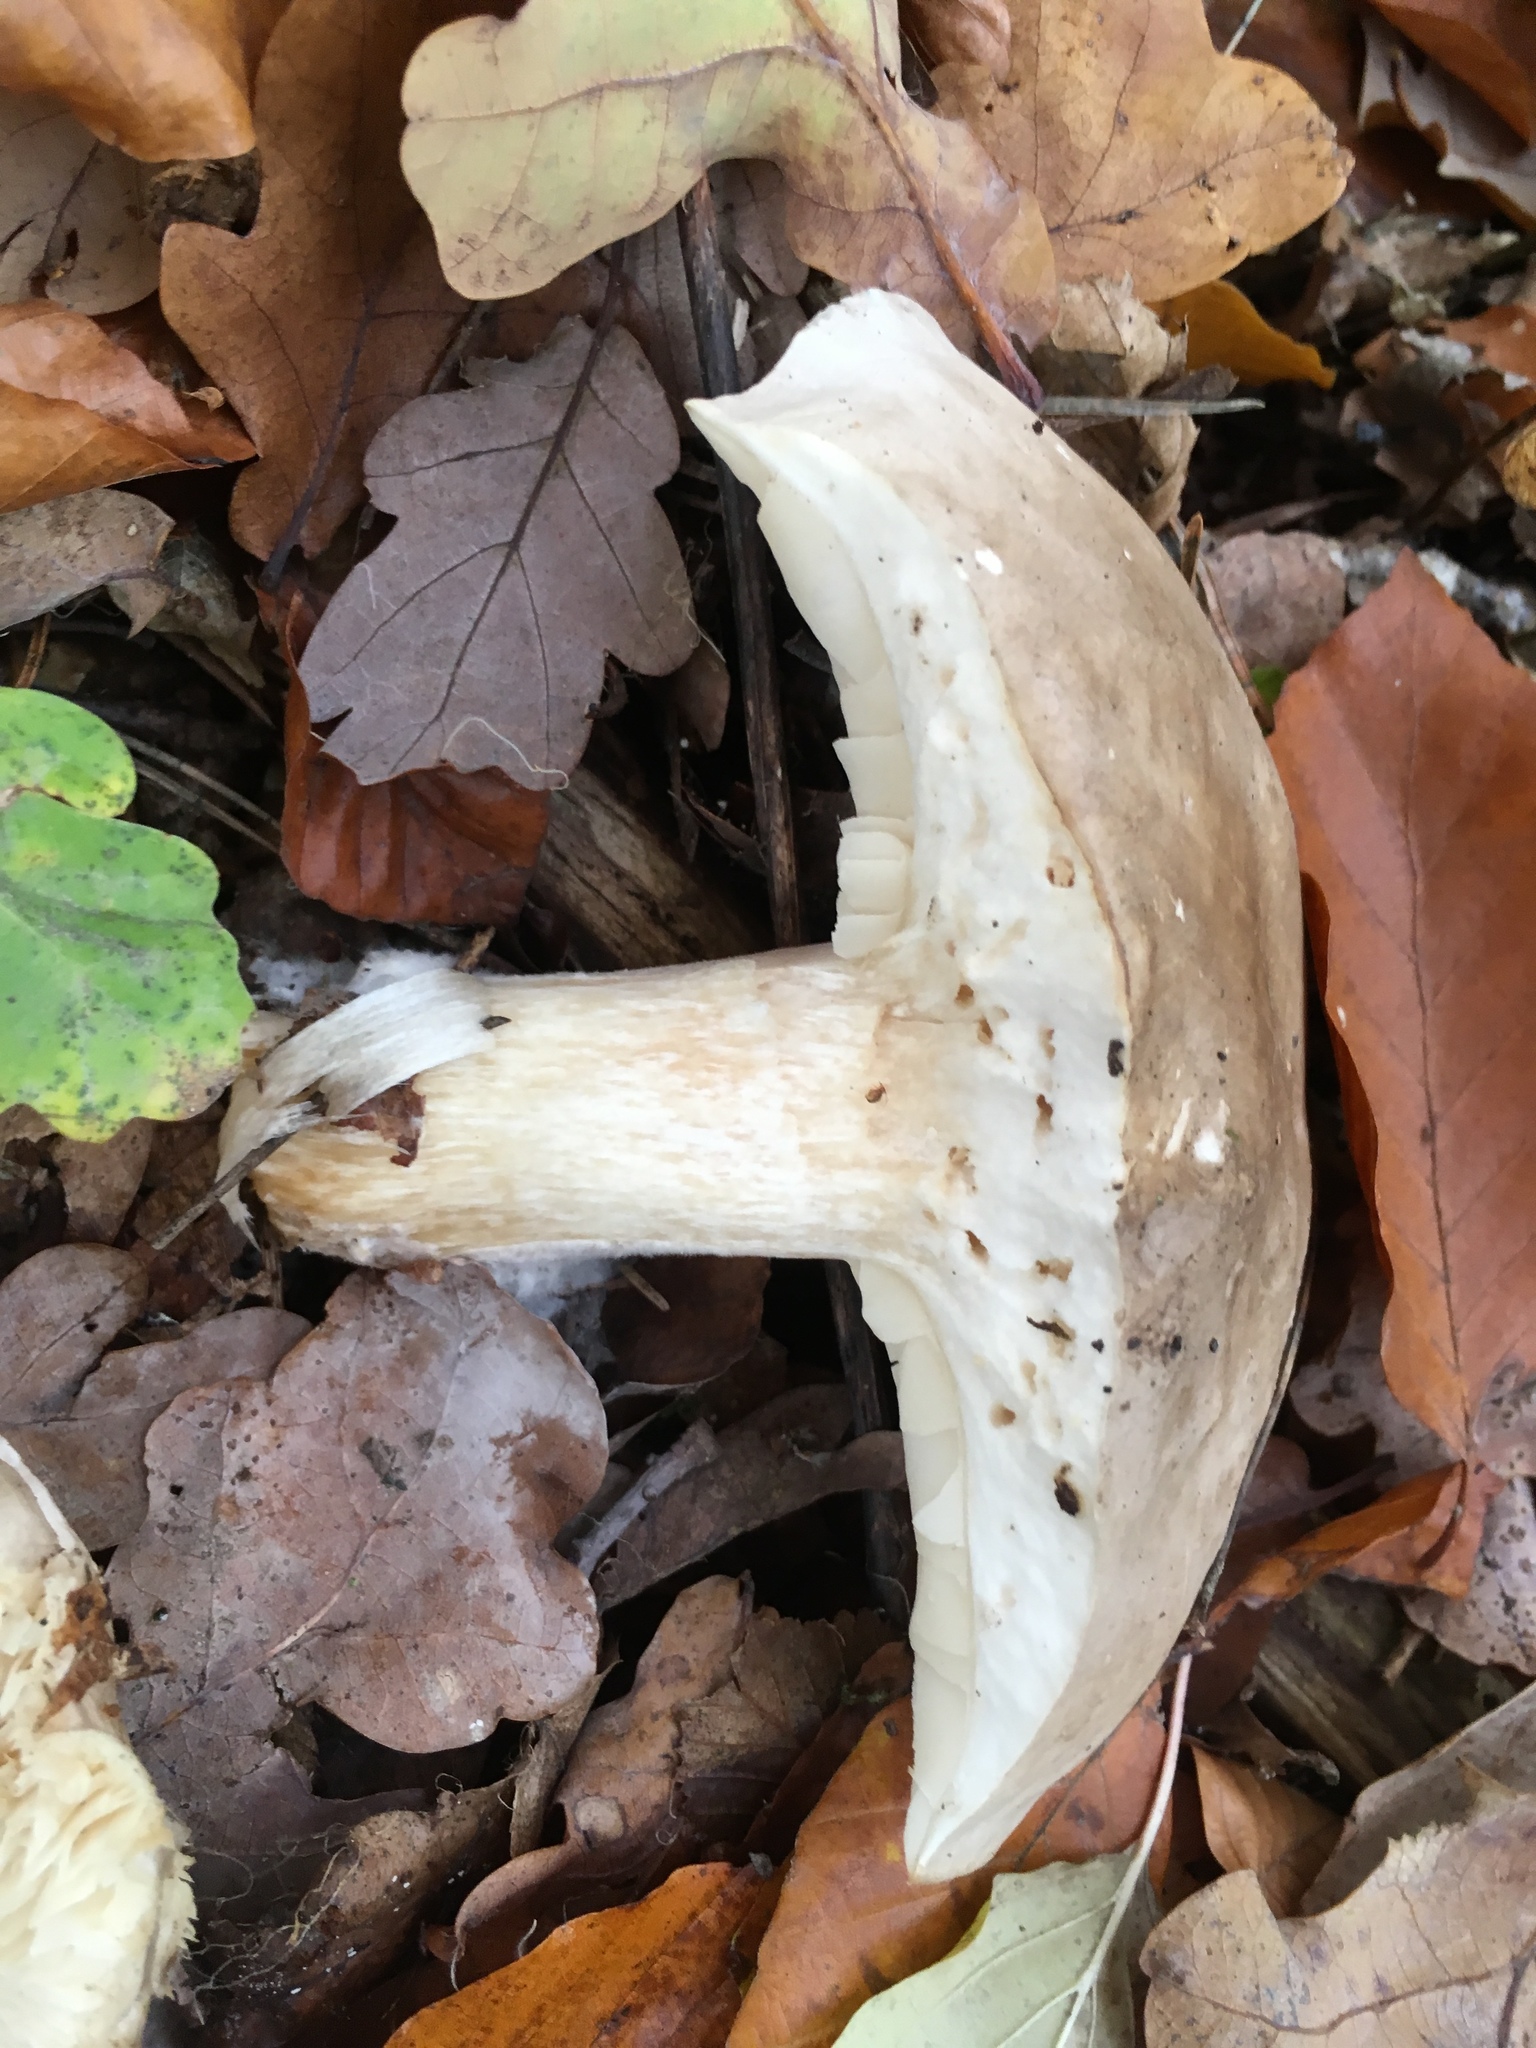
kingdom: Fungi
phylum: Basidiomycota
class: Agaricomycetes
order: Agaricales
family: Tricholomataceae
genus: Clitocybe
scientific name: Clitocybe nebularis
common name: Clouded agaric
